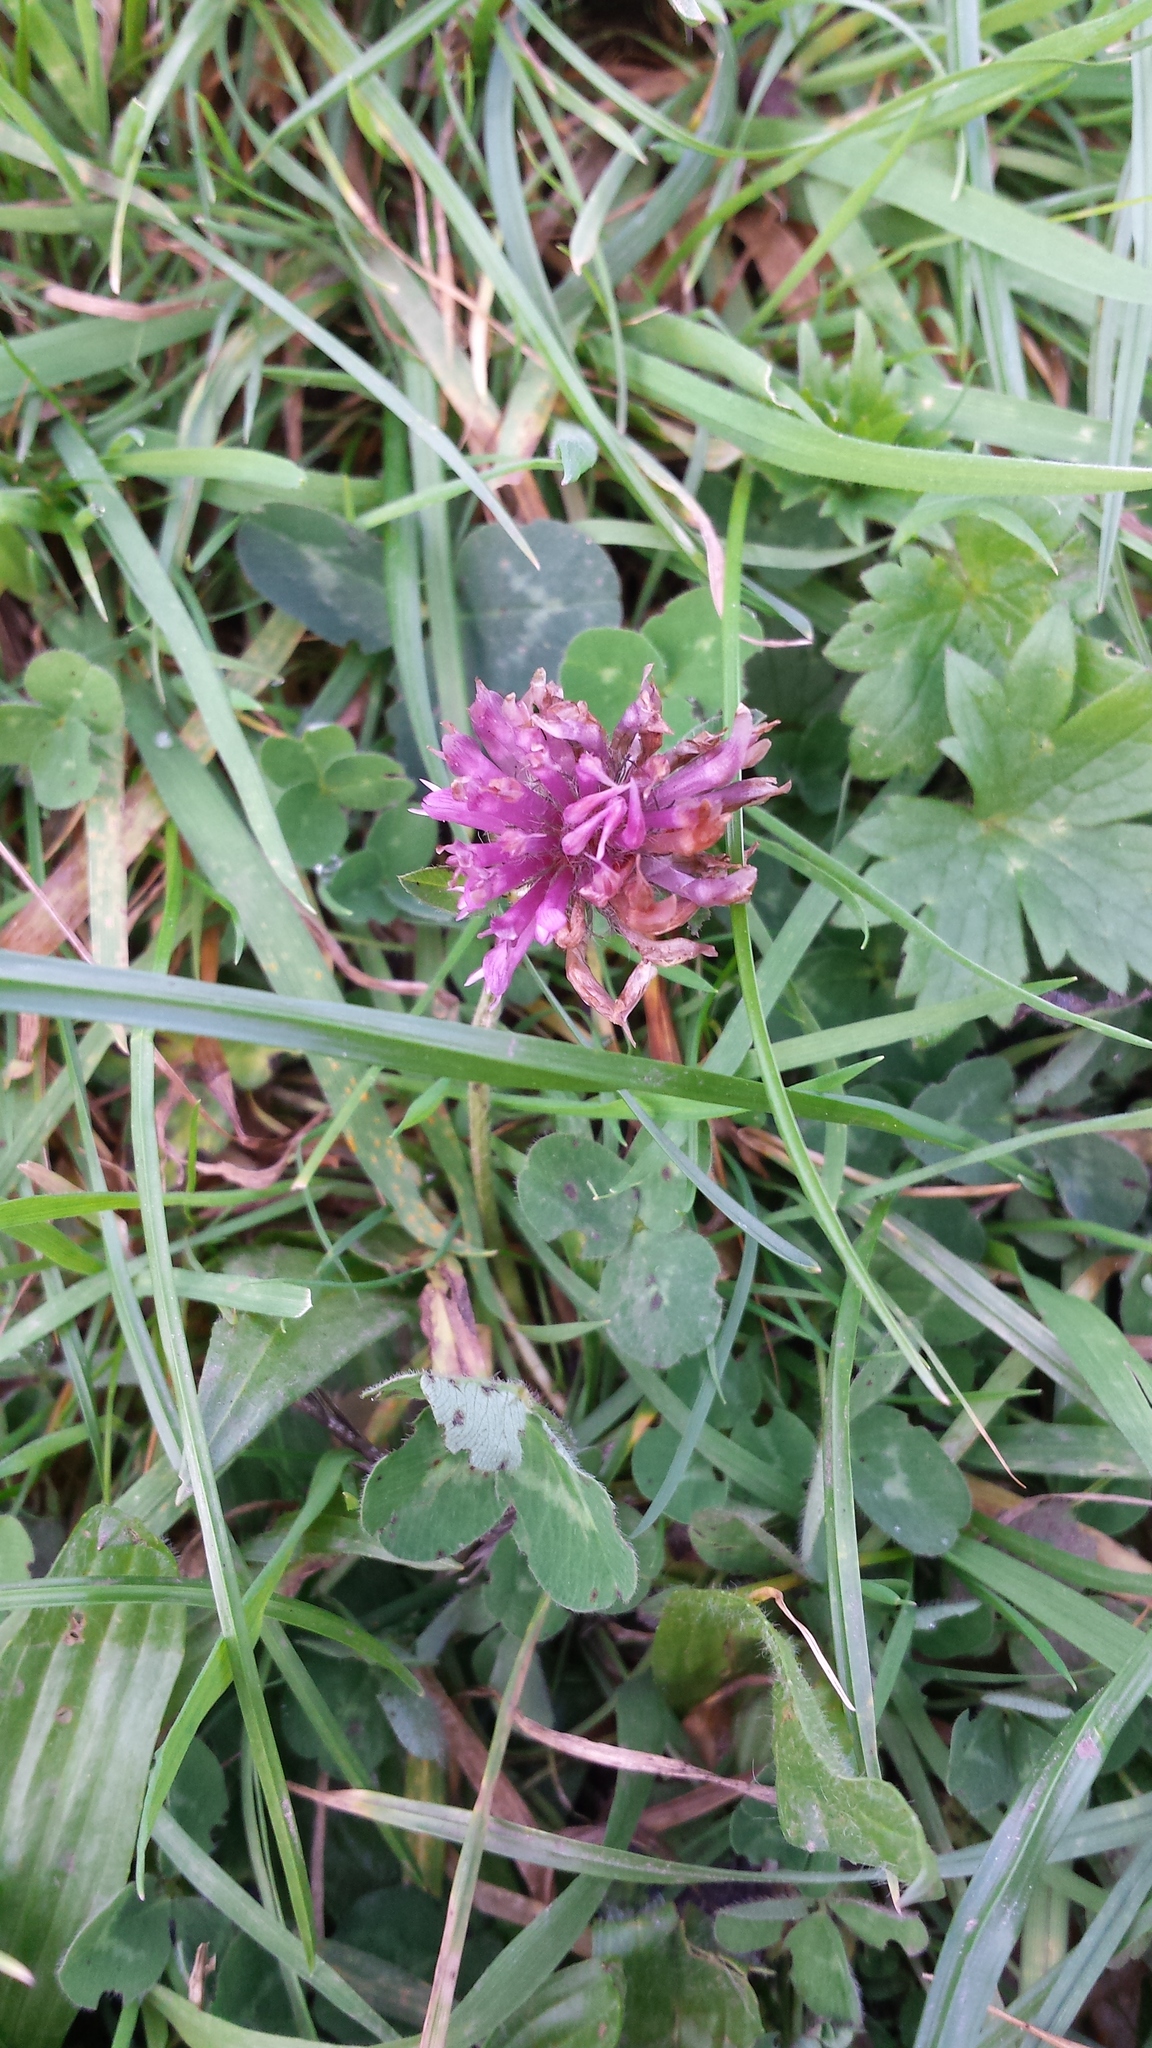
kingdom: Plantae
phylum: Tracheophyta
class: Magnoliopsida
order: Fabales
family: Fabaceae
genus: Trifolium
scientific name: Trifolium pratense
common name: Red clover
